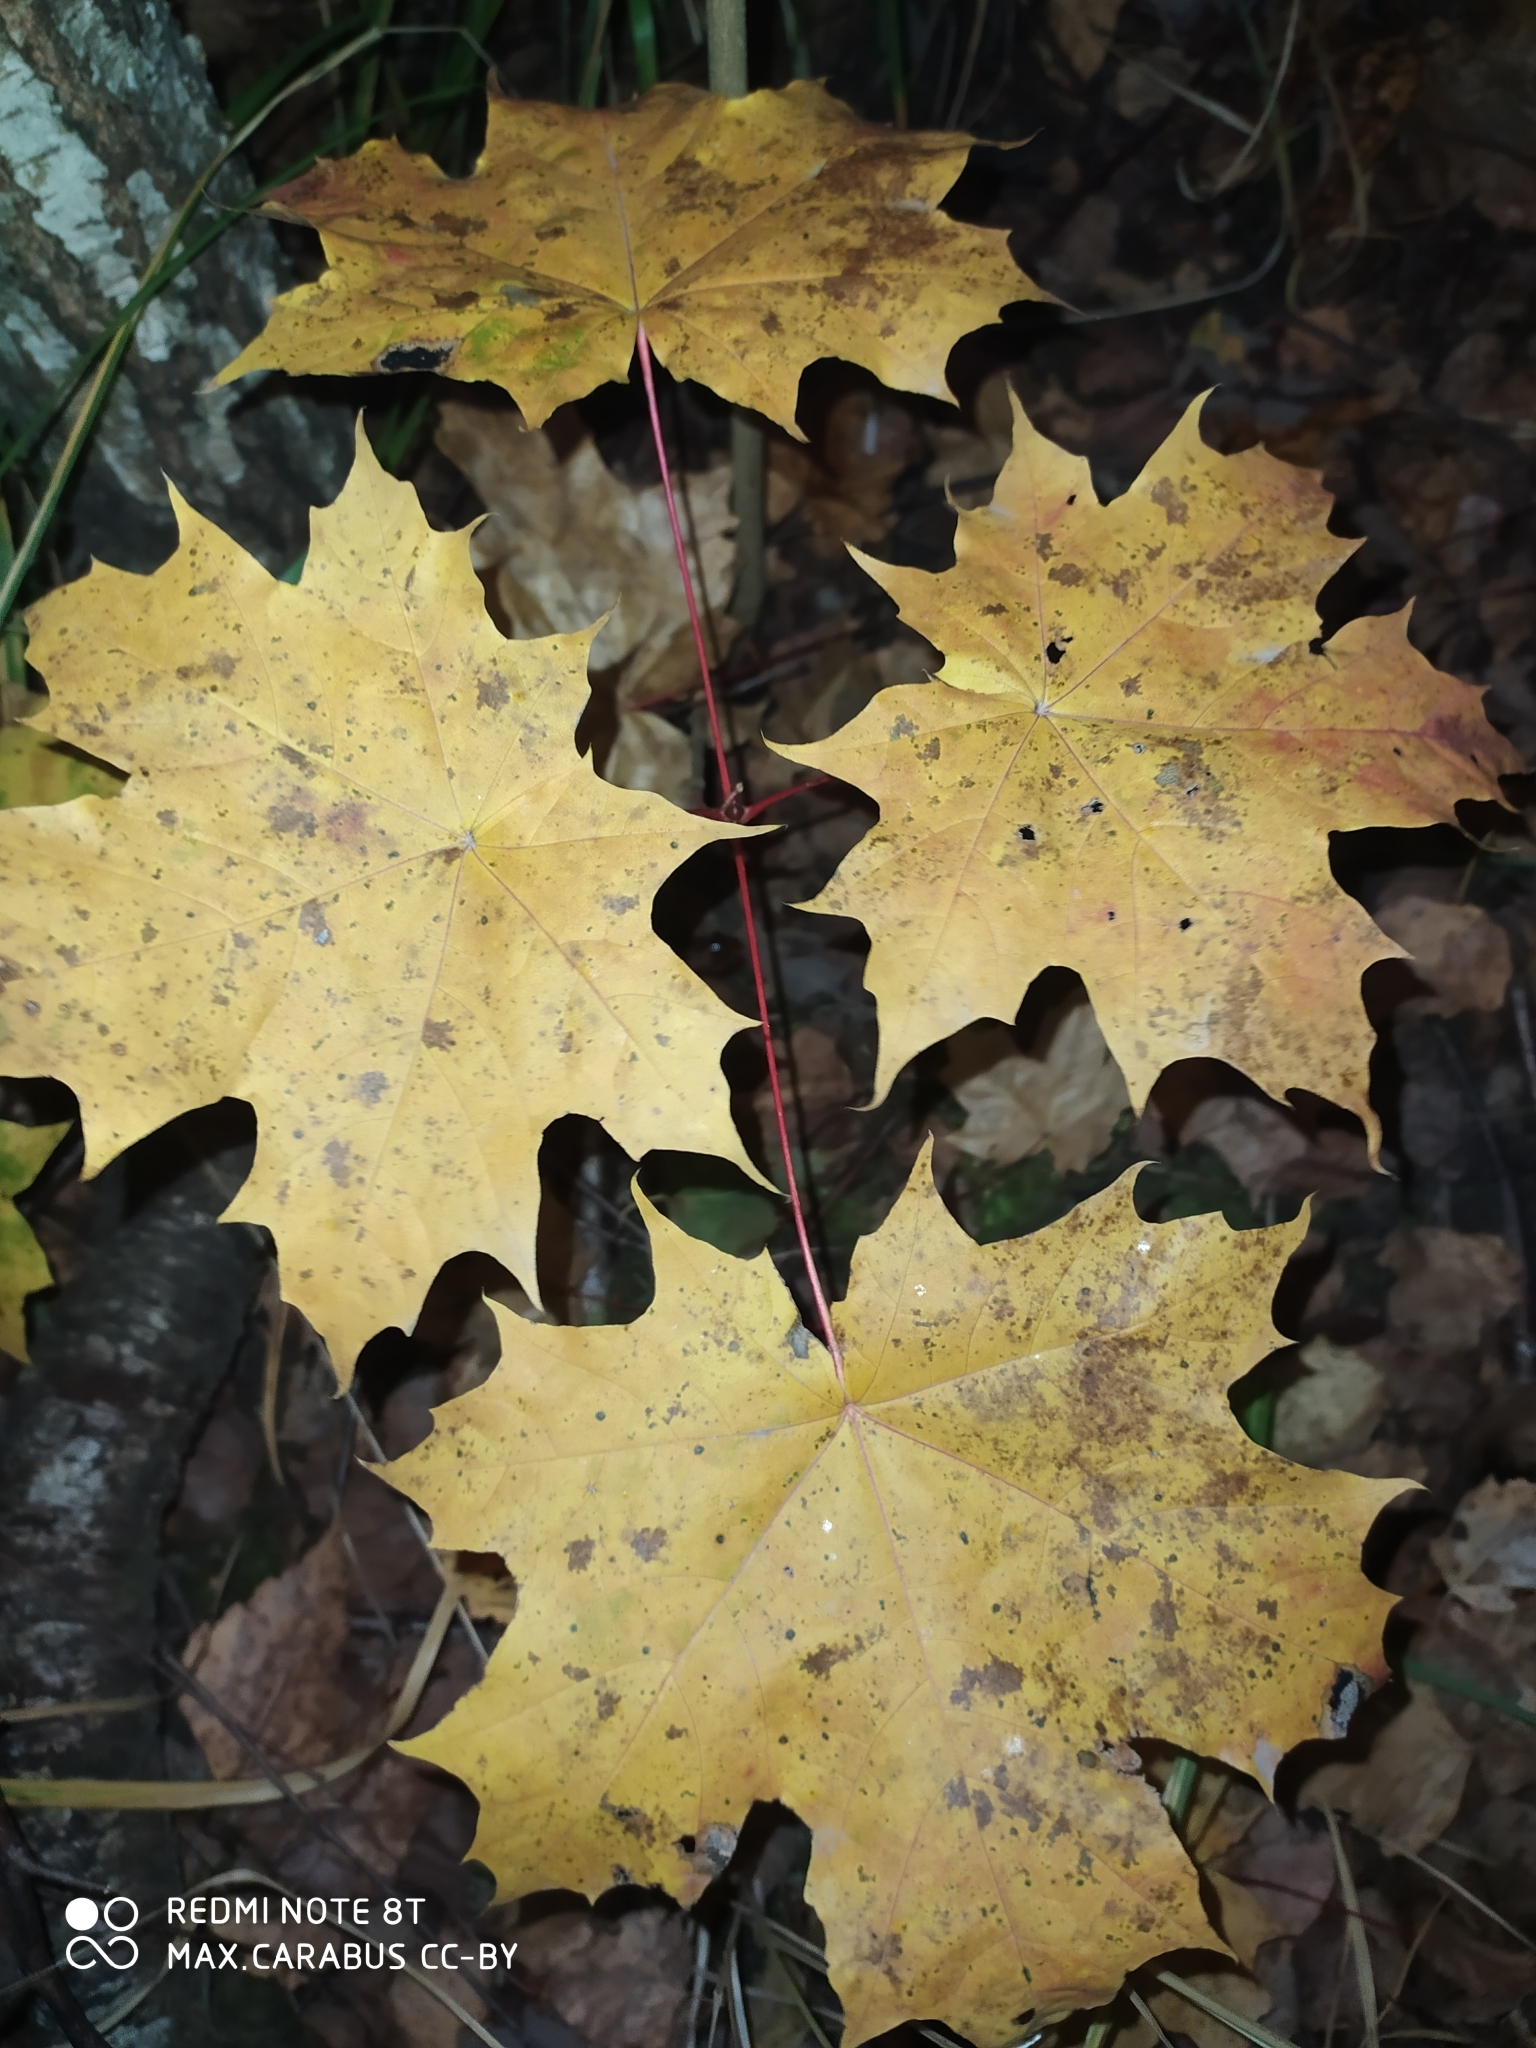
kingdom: Plantae
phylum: Tracheophyta
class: Magnoliopsida
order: Sapindales
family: Sapindaceae
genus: Acer
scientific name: Acer platanoides
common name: Norway maple
